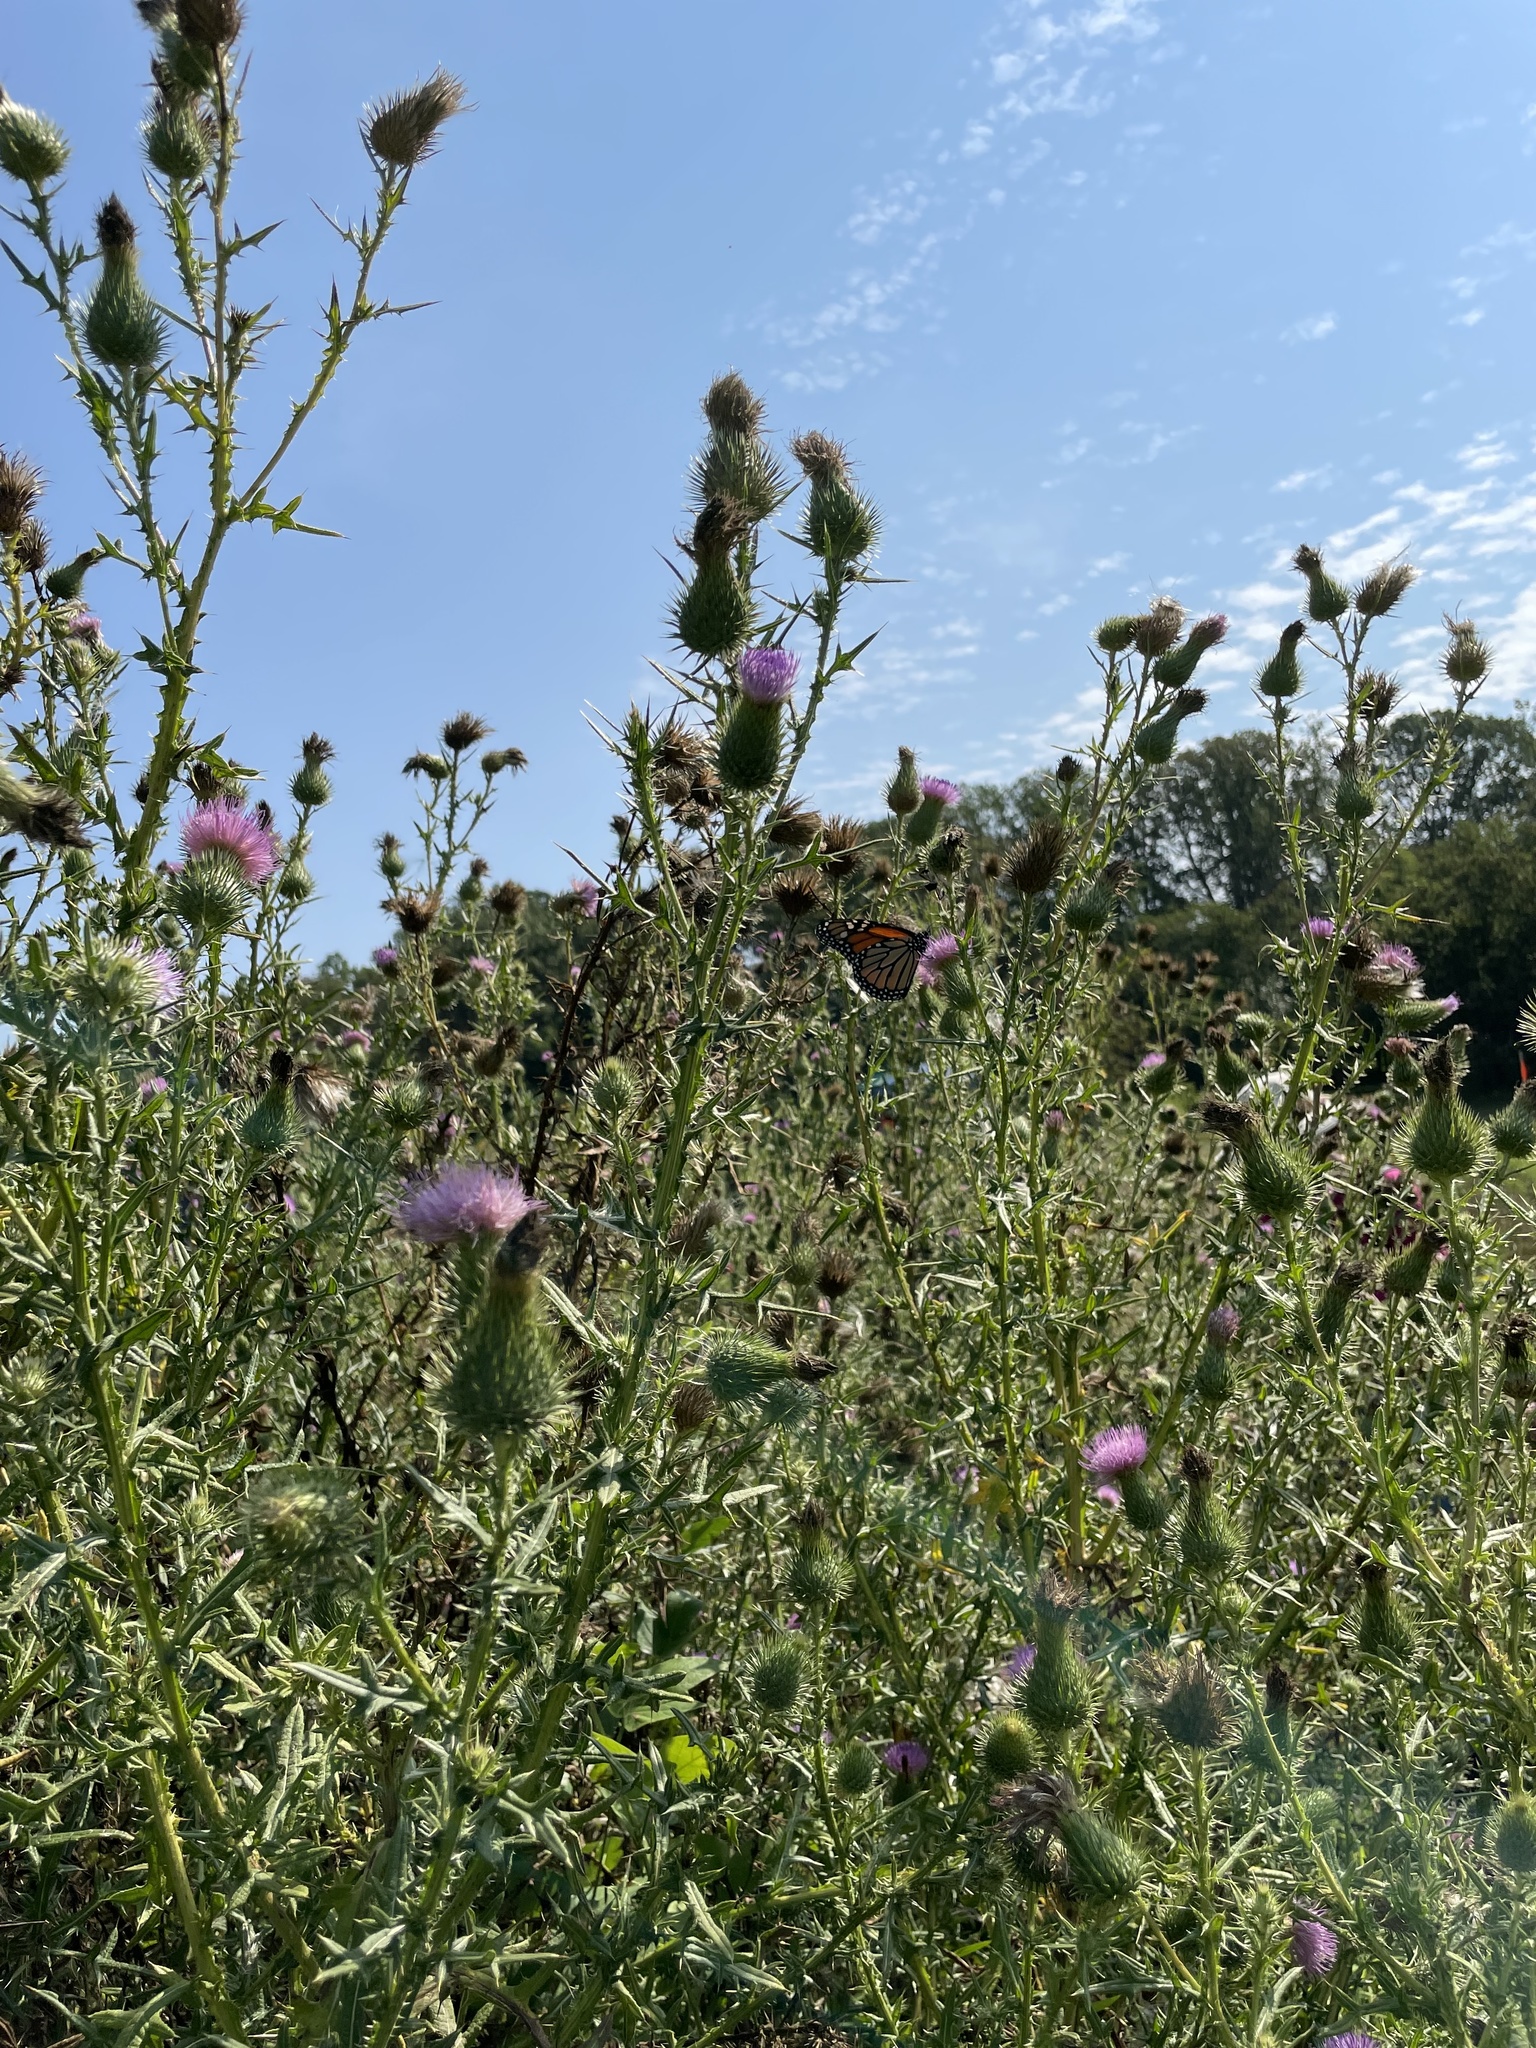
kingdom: Animalia
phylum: Arthropoda
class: Insecta
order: Lepidoptera
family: Nymphalidae
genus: Danaus
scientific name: Danaus plexippus
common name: Monarch
